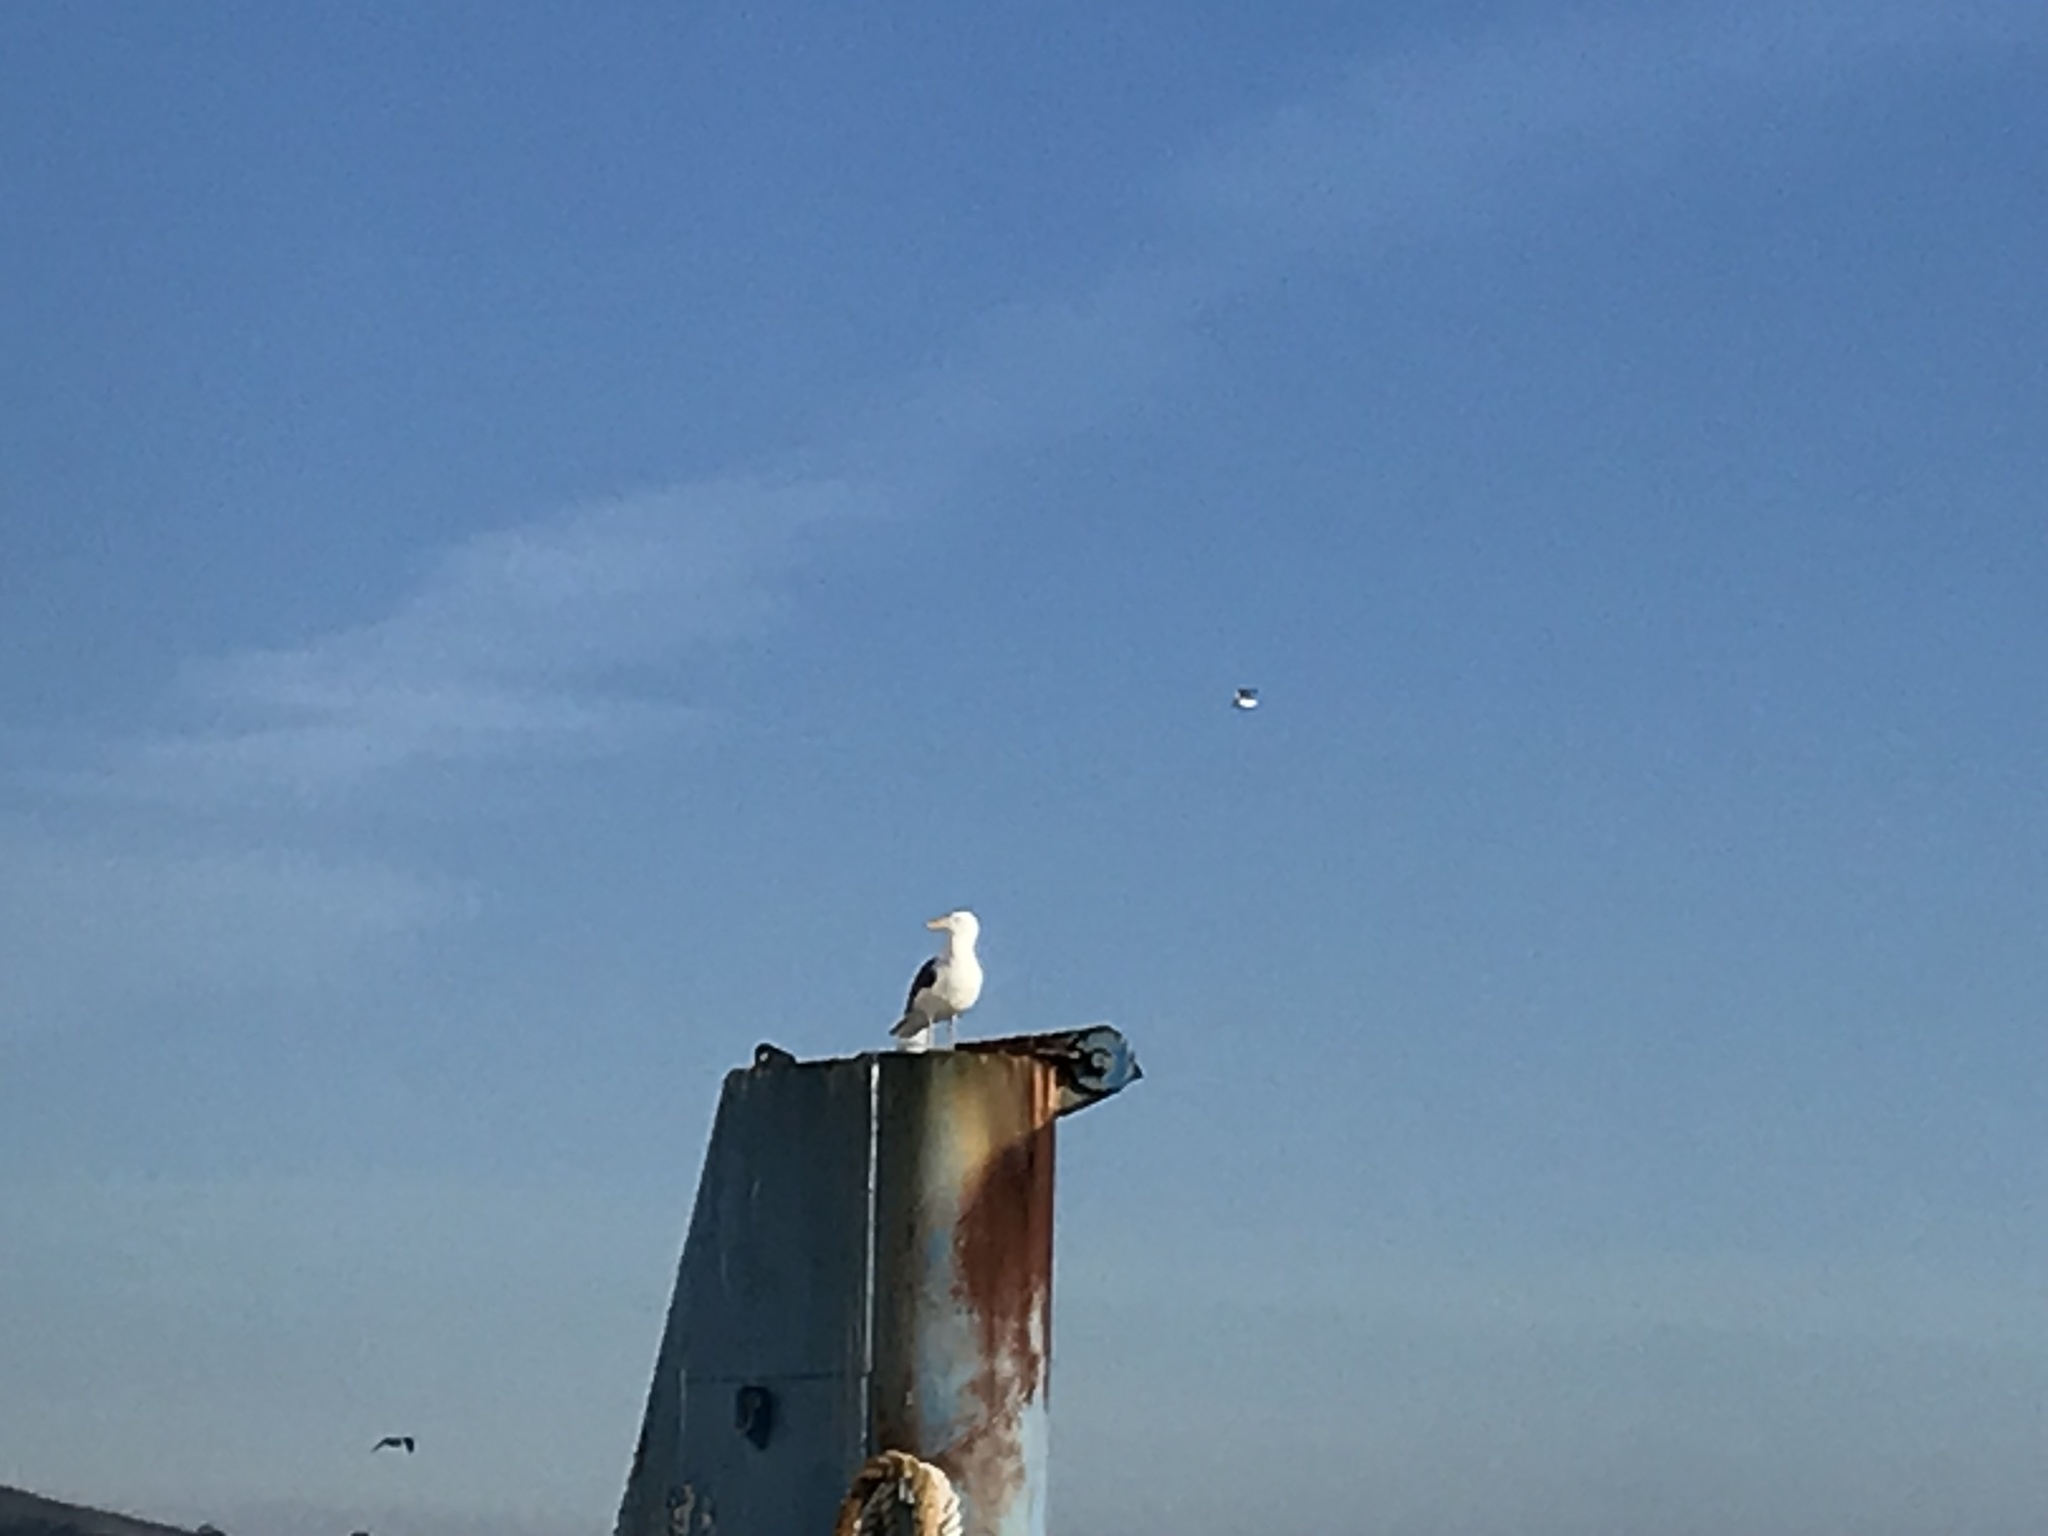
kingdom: Animalia
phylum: Chordata
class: Aves
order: Charadriiformes
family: Laridae
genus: Larus
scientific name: Larus occidentalis
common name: Western gull
